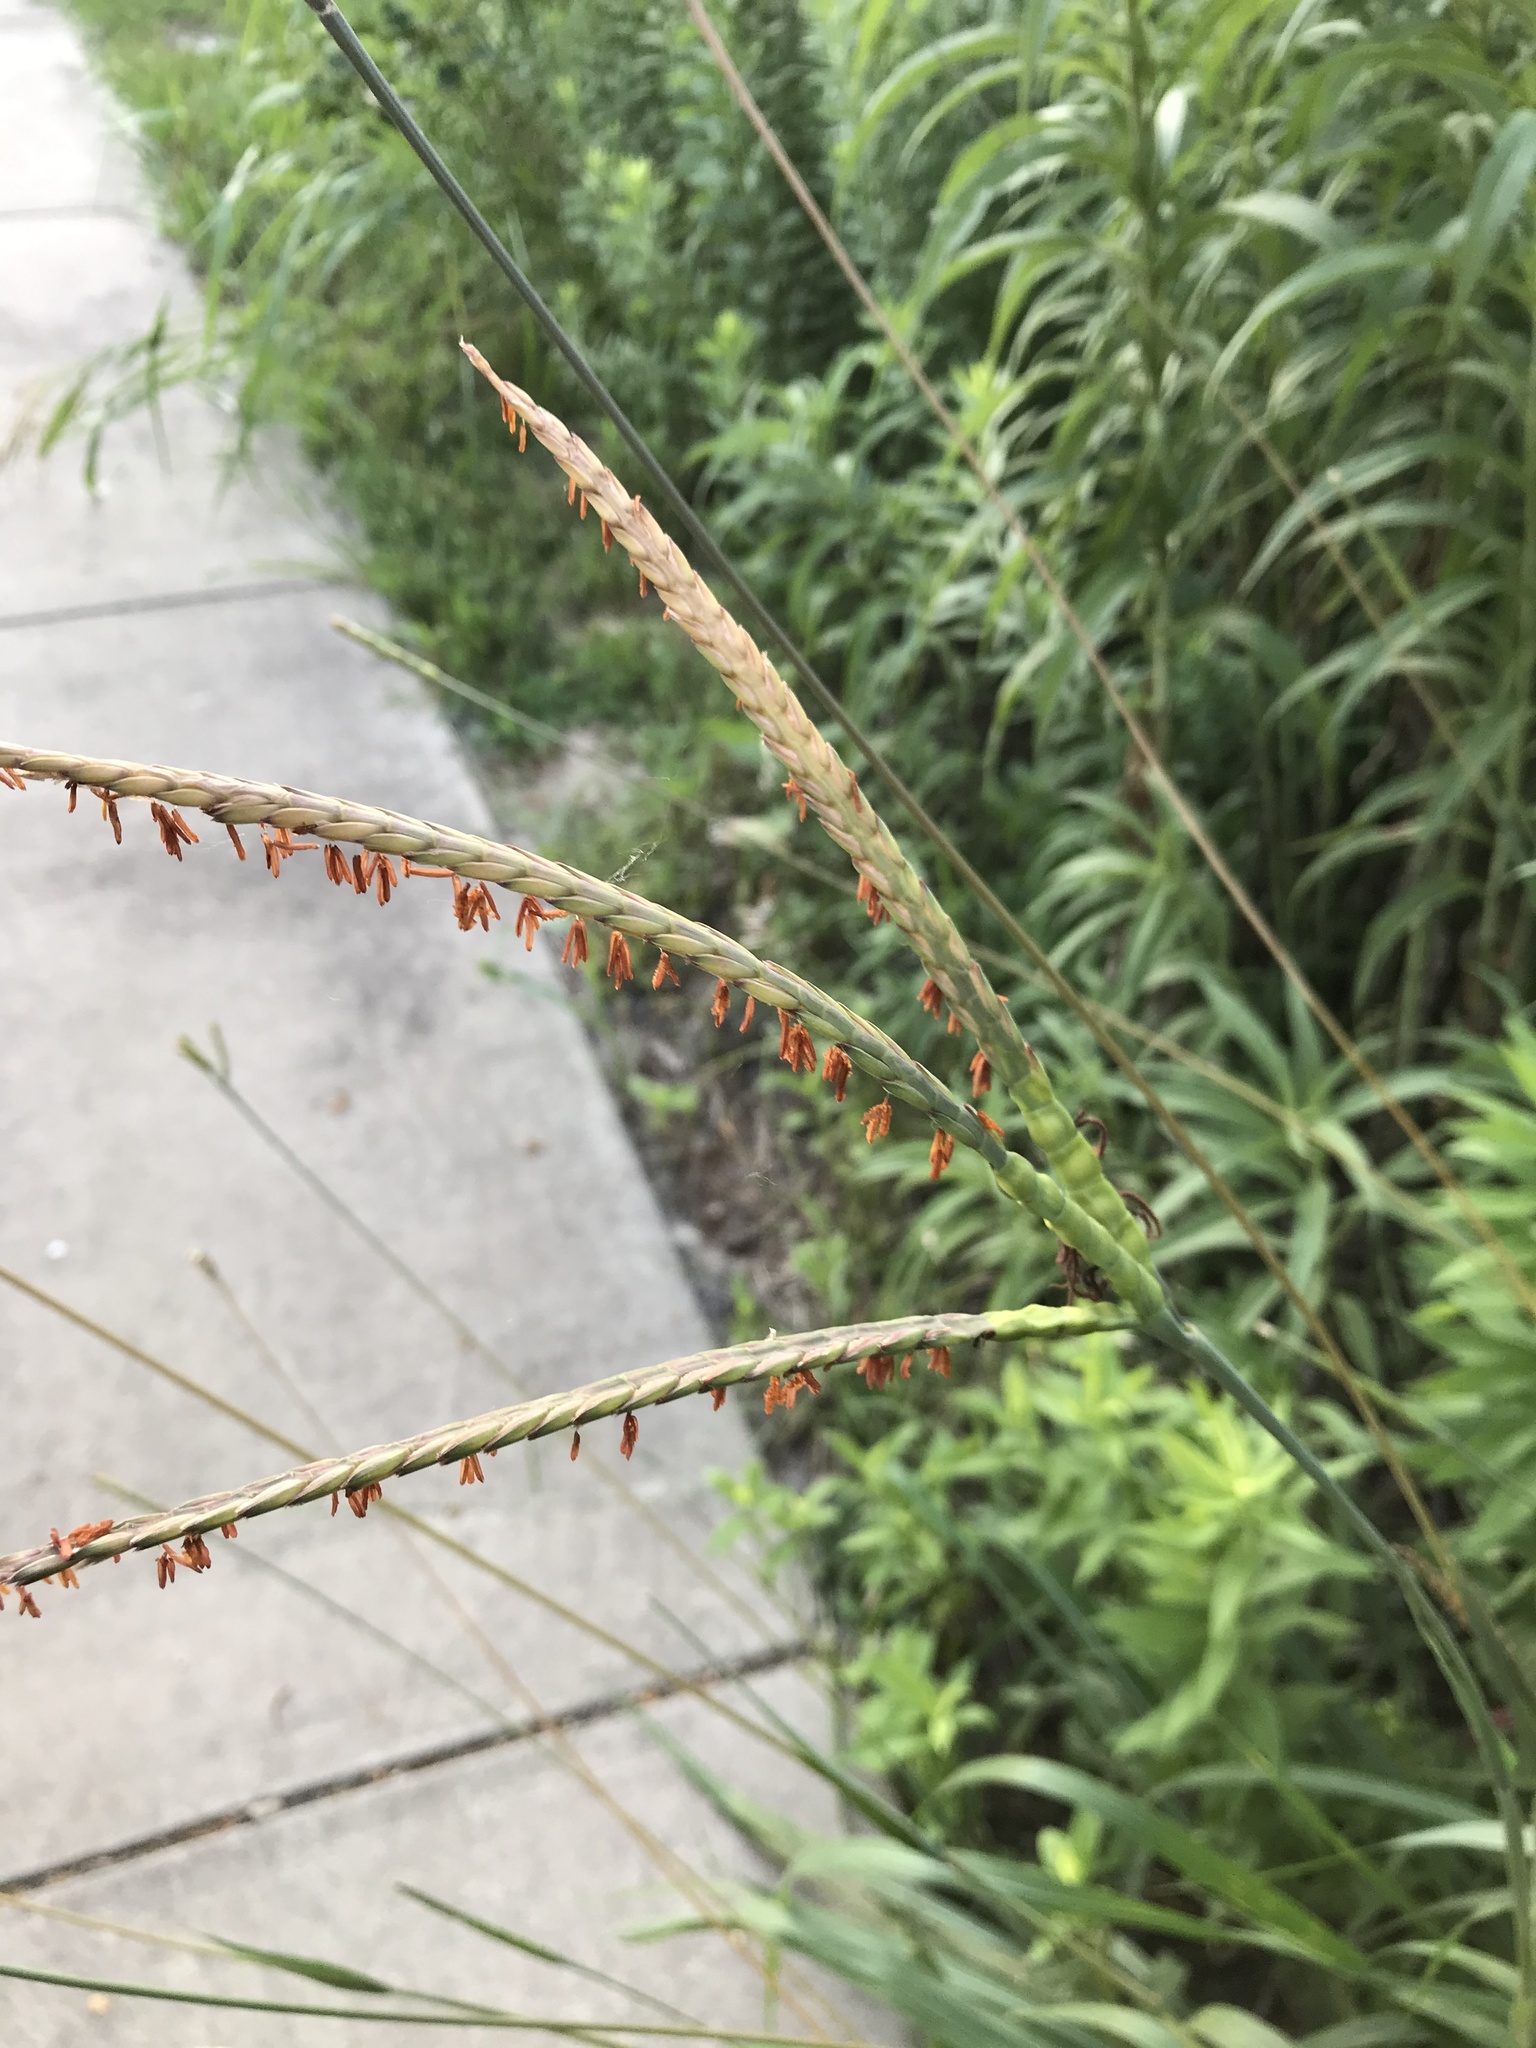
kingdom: Plantae
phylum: Tracheophyta
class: Liliopsida
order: Poales
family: Poaceae
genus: Tripsacum
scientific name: Tripsacum dactyloides
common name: Buffalo-grass
